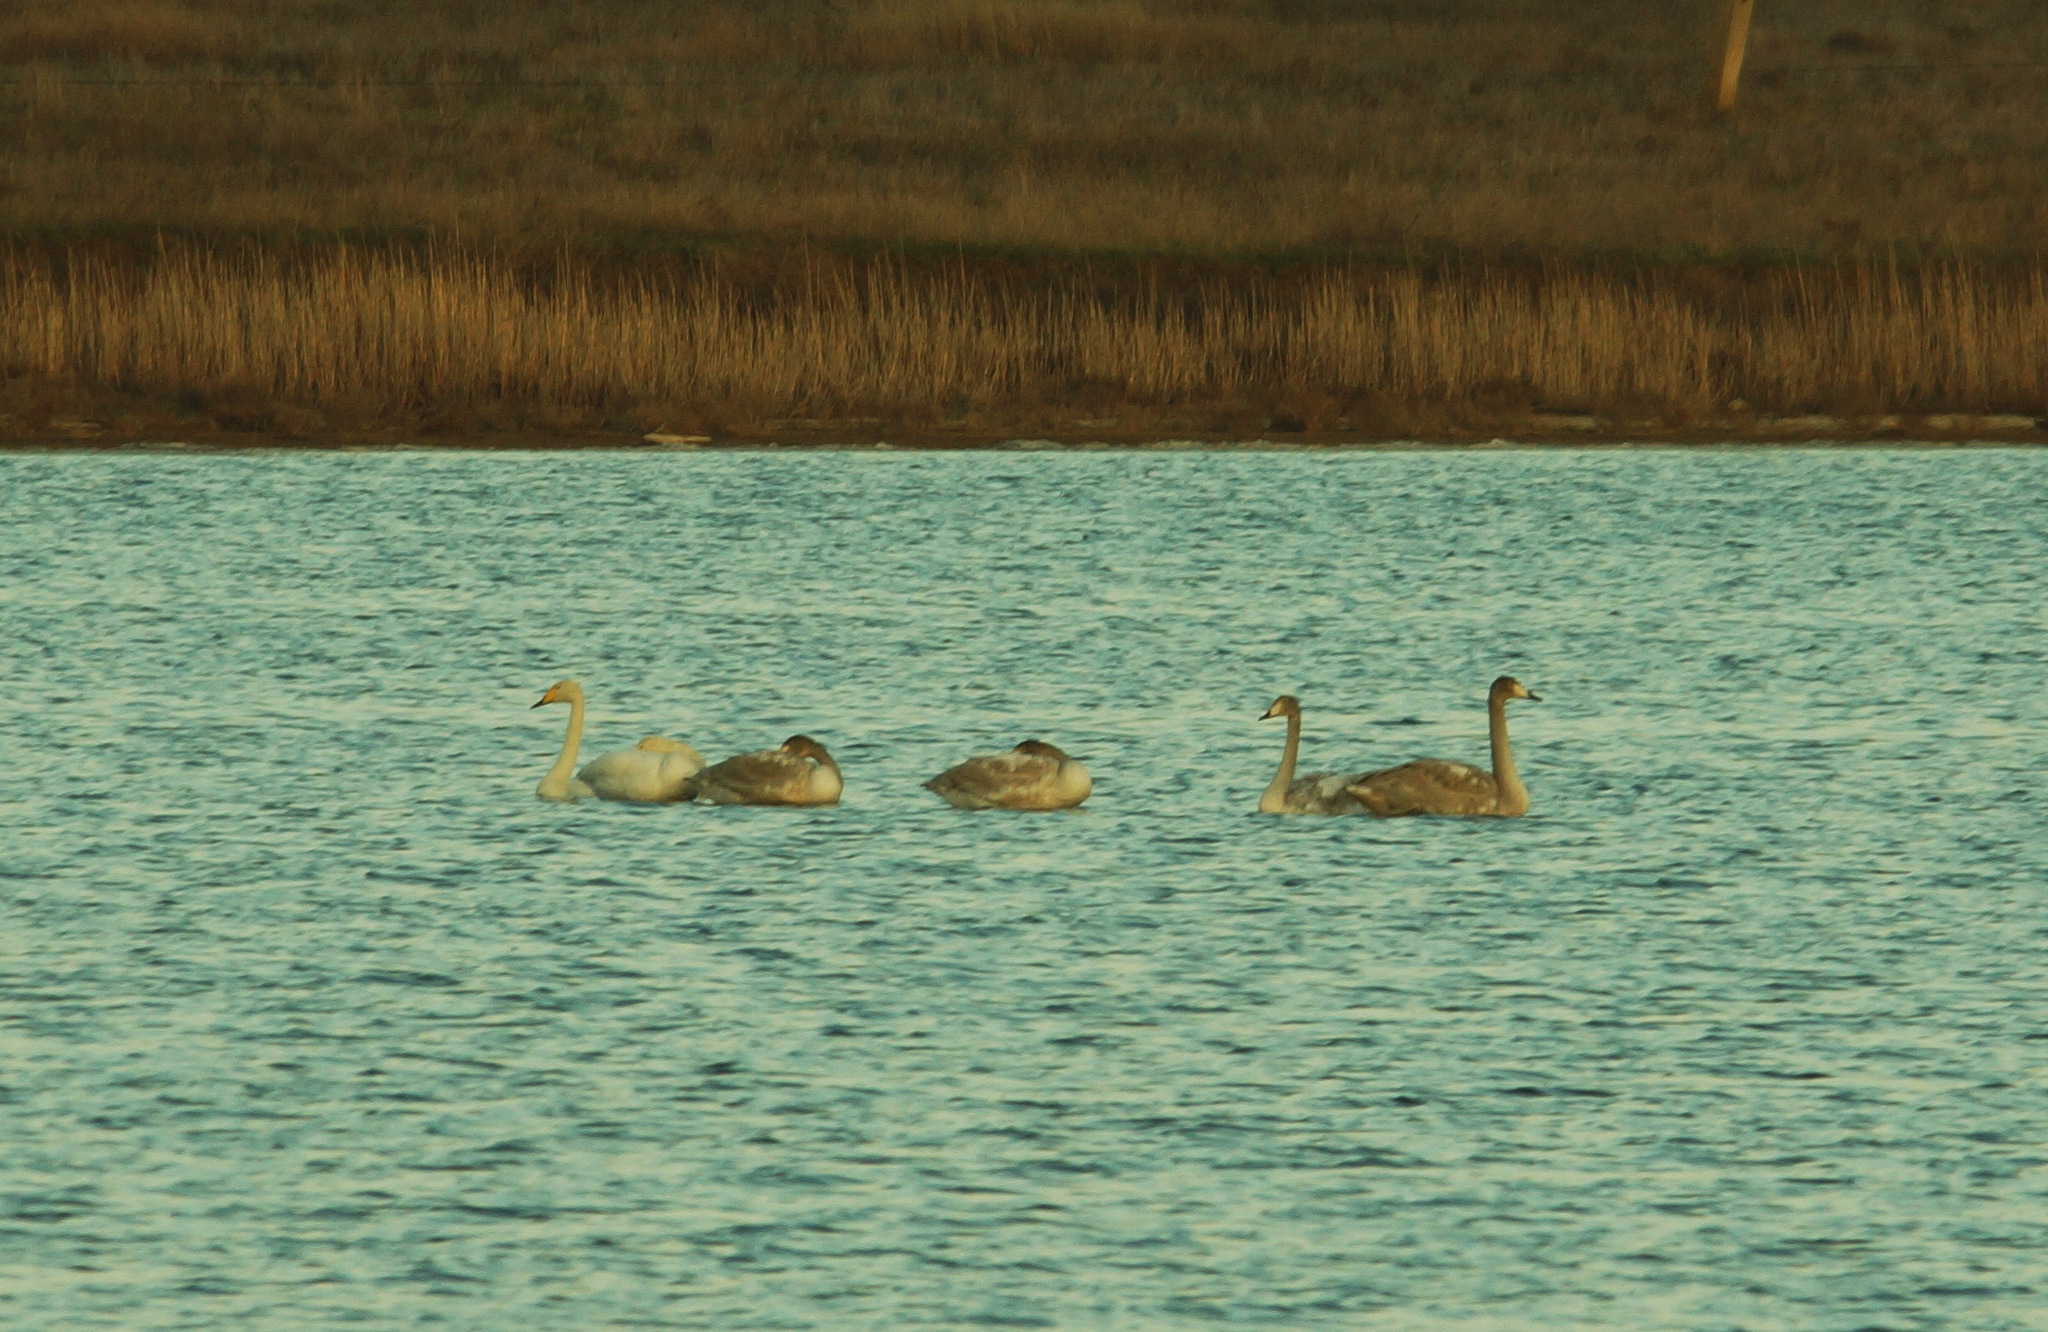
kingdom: Animalia
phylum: Chordata
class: Aves
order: Anseriformes
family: Anatidae
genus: Cygnus
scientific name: Cygnus cygnus
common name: Whooper swan
